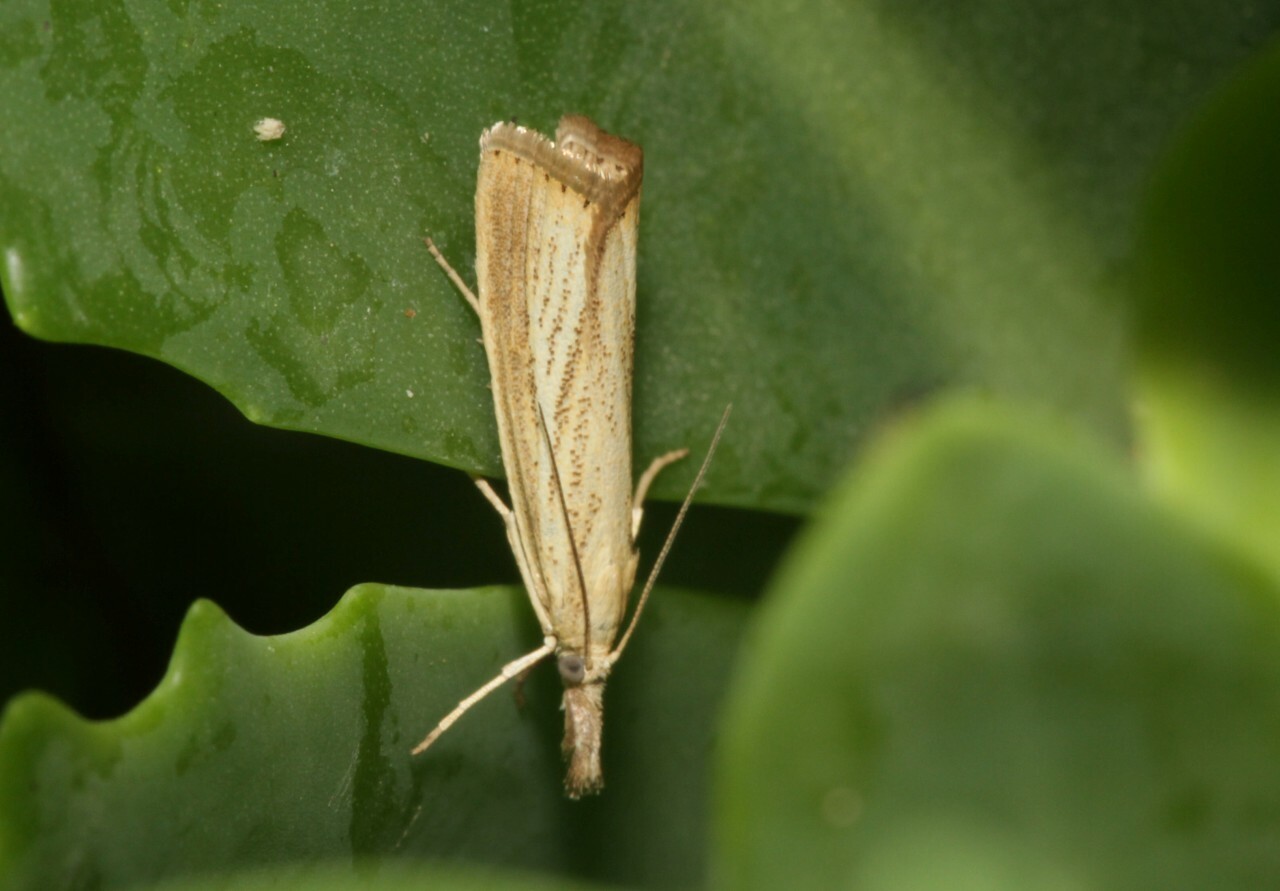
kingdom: Animalia
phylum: Arthropoda
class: Insecta
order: Lepidoptera
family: Crambidae
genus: Agriphila
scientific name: Agriphila straminella
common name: Straw grass-veneer
